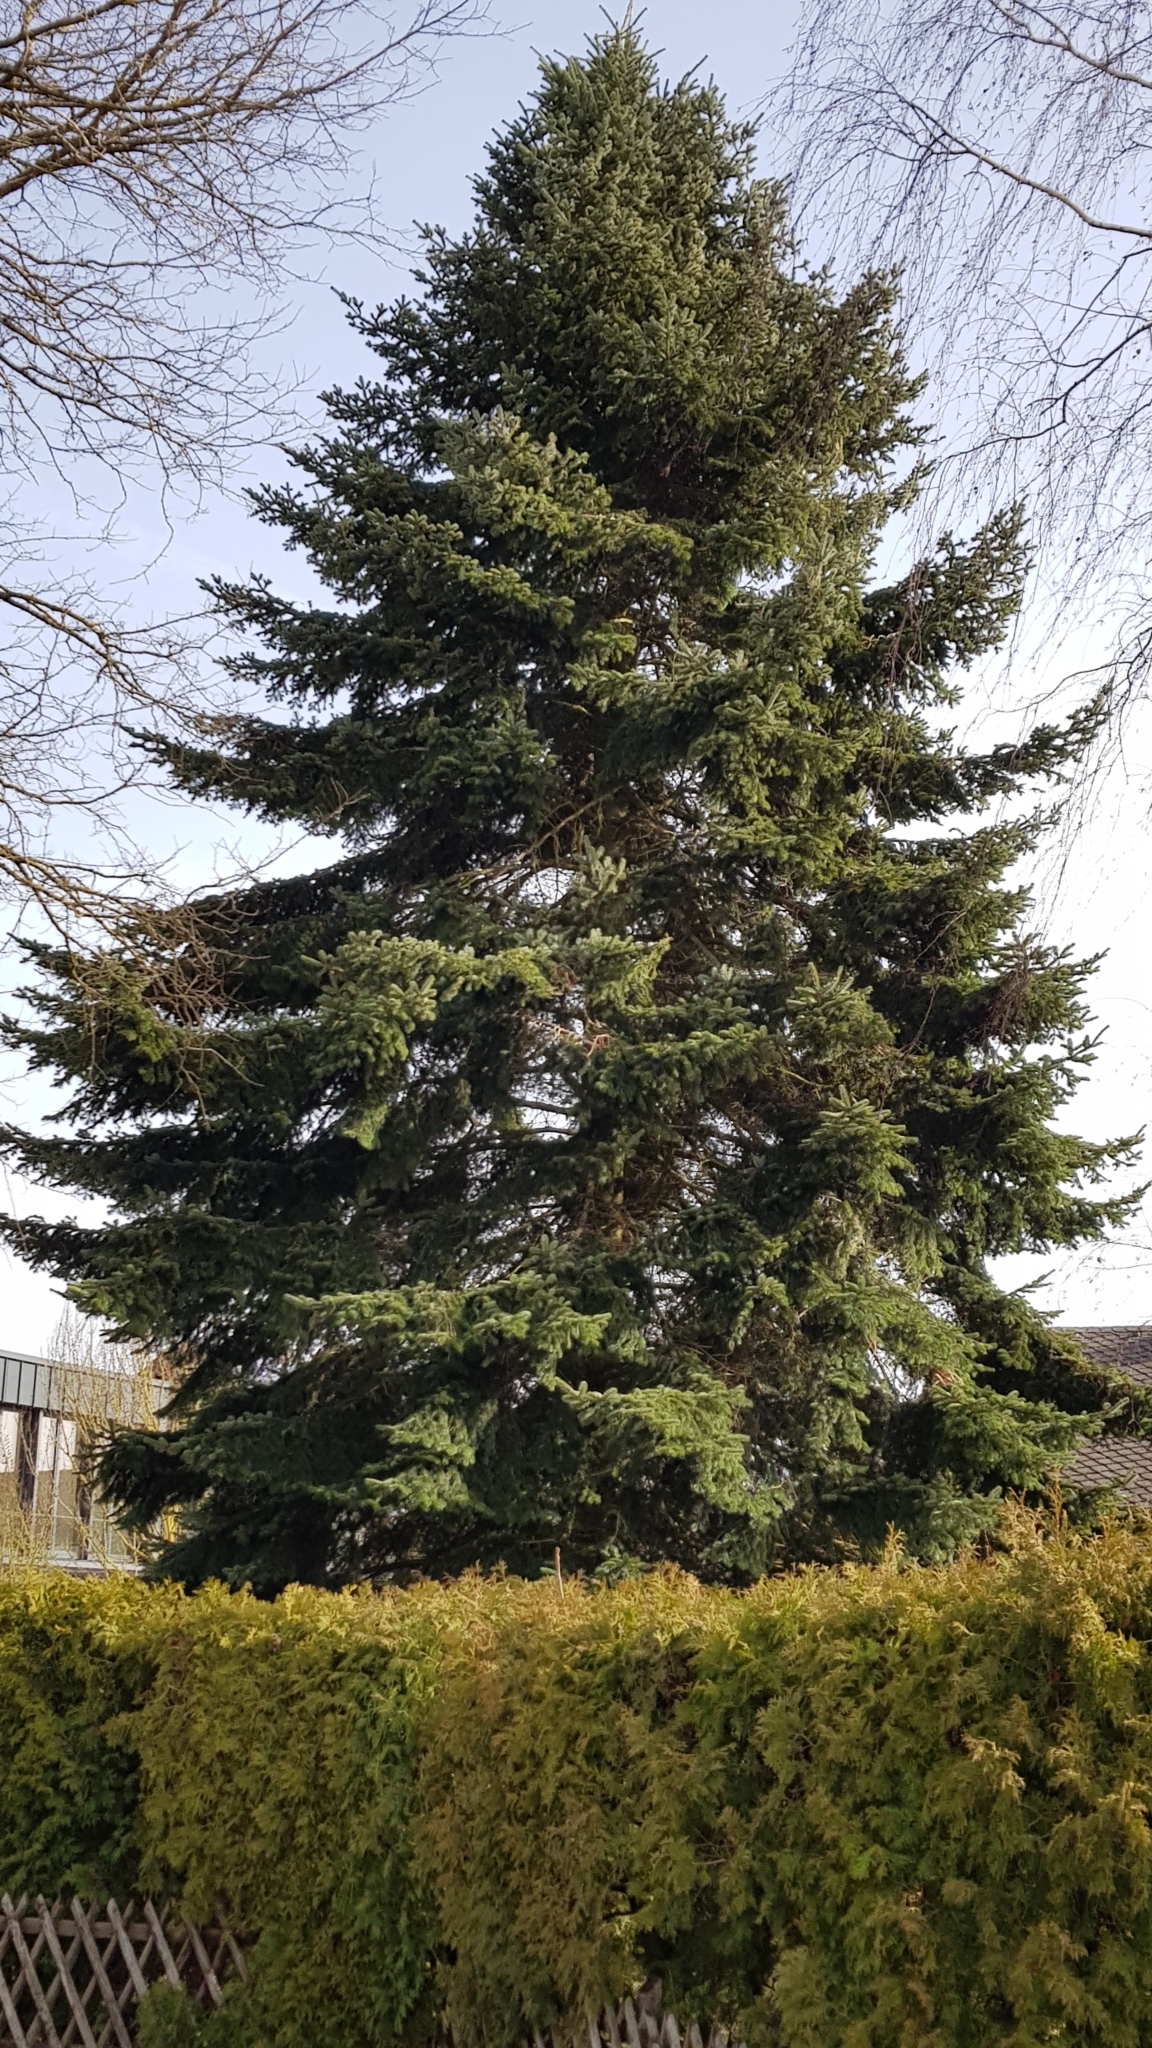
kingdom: Plantae
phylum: Tracheophyta
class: Pinopsida
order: Pinales
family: Pinaceae
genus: Picea
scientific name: Picea abies
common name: Norway spruce
